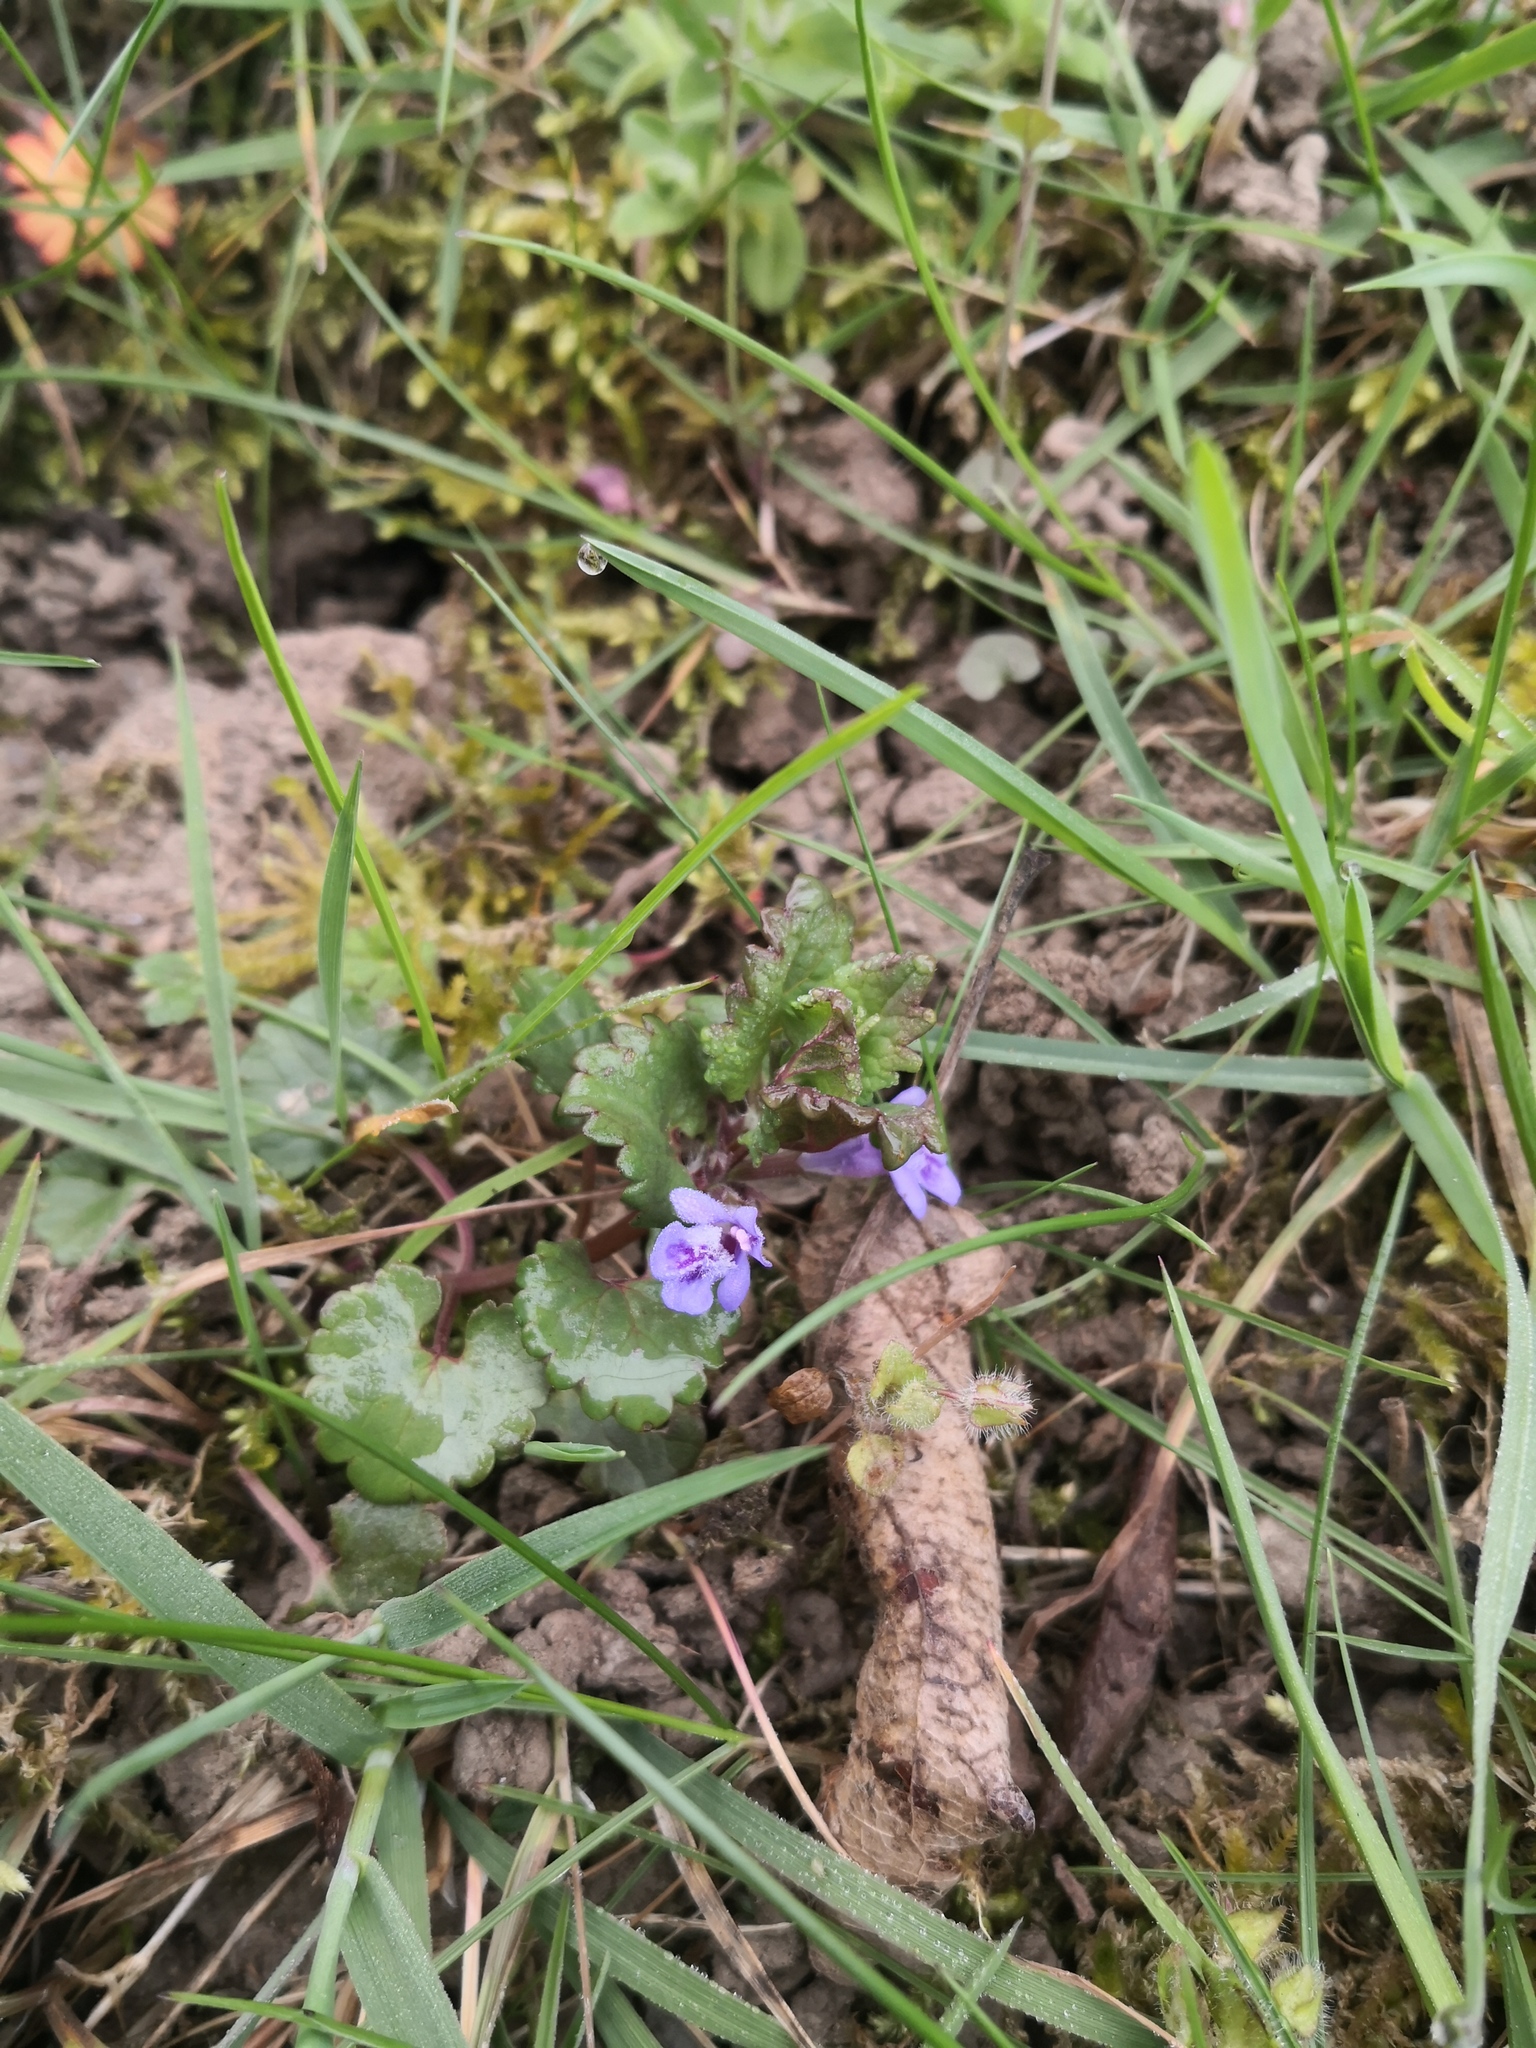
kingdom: Plantae
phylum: Tracheophyta
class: Magnoliopsida
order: Lamiales
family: Lamiaceae
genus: Glechoma
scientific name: Glechoma hederacea
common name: Ground ivy
